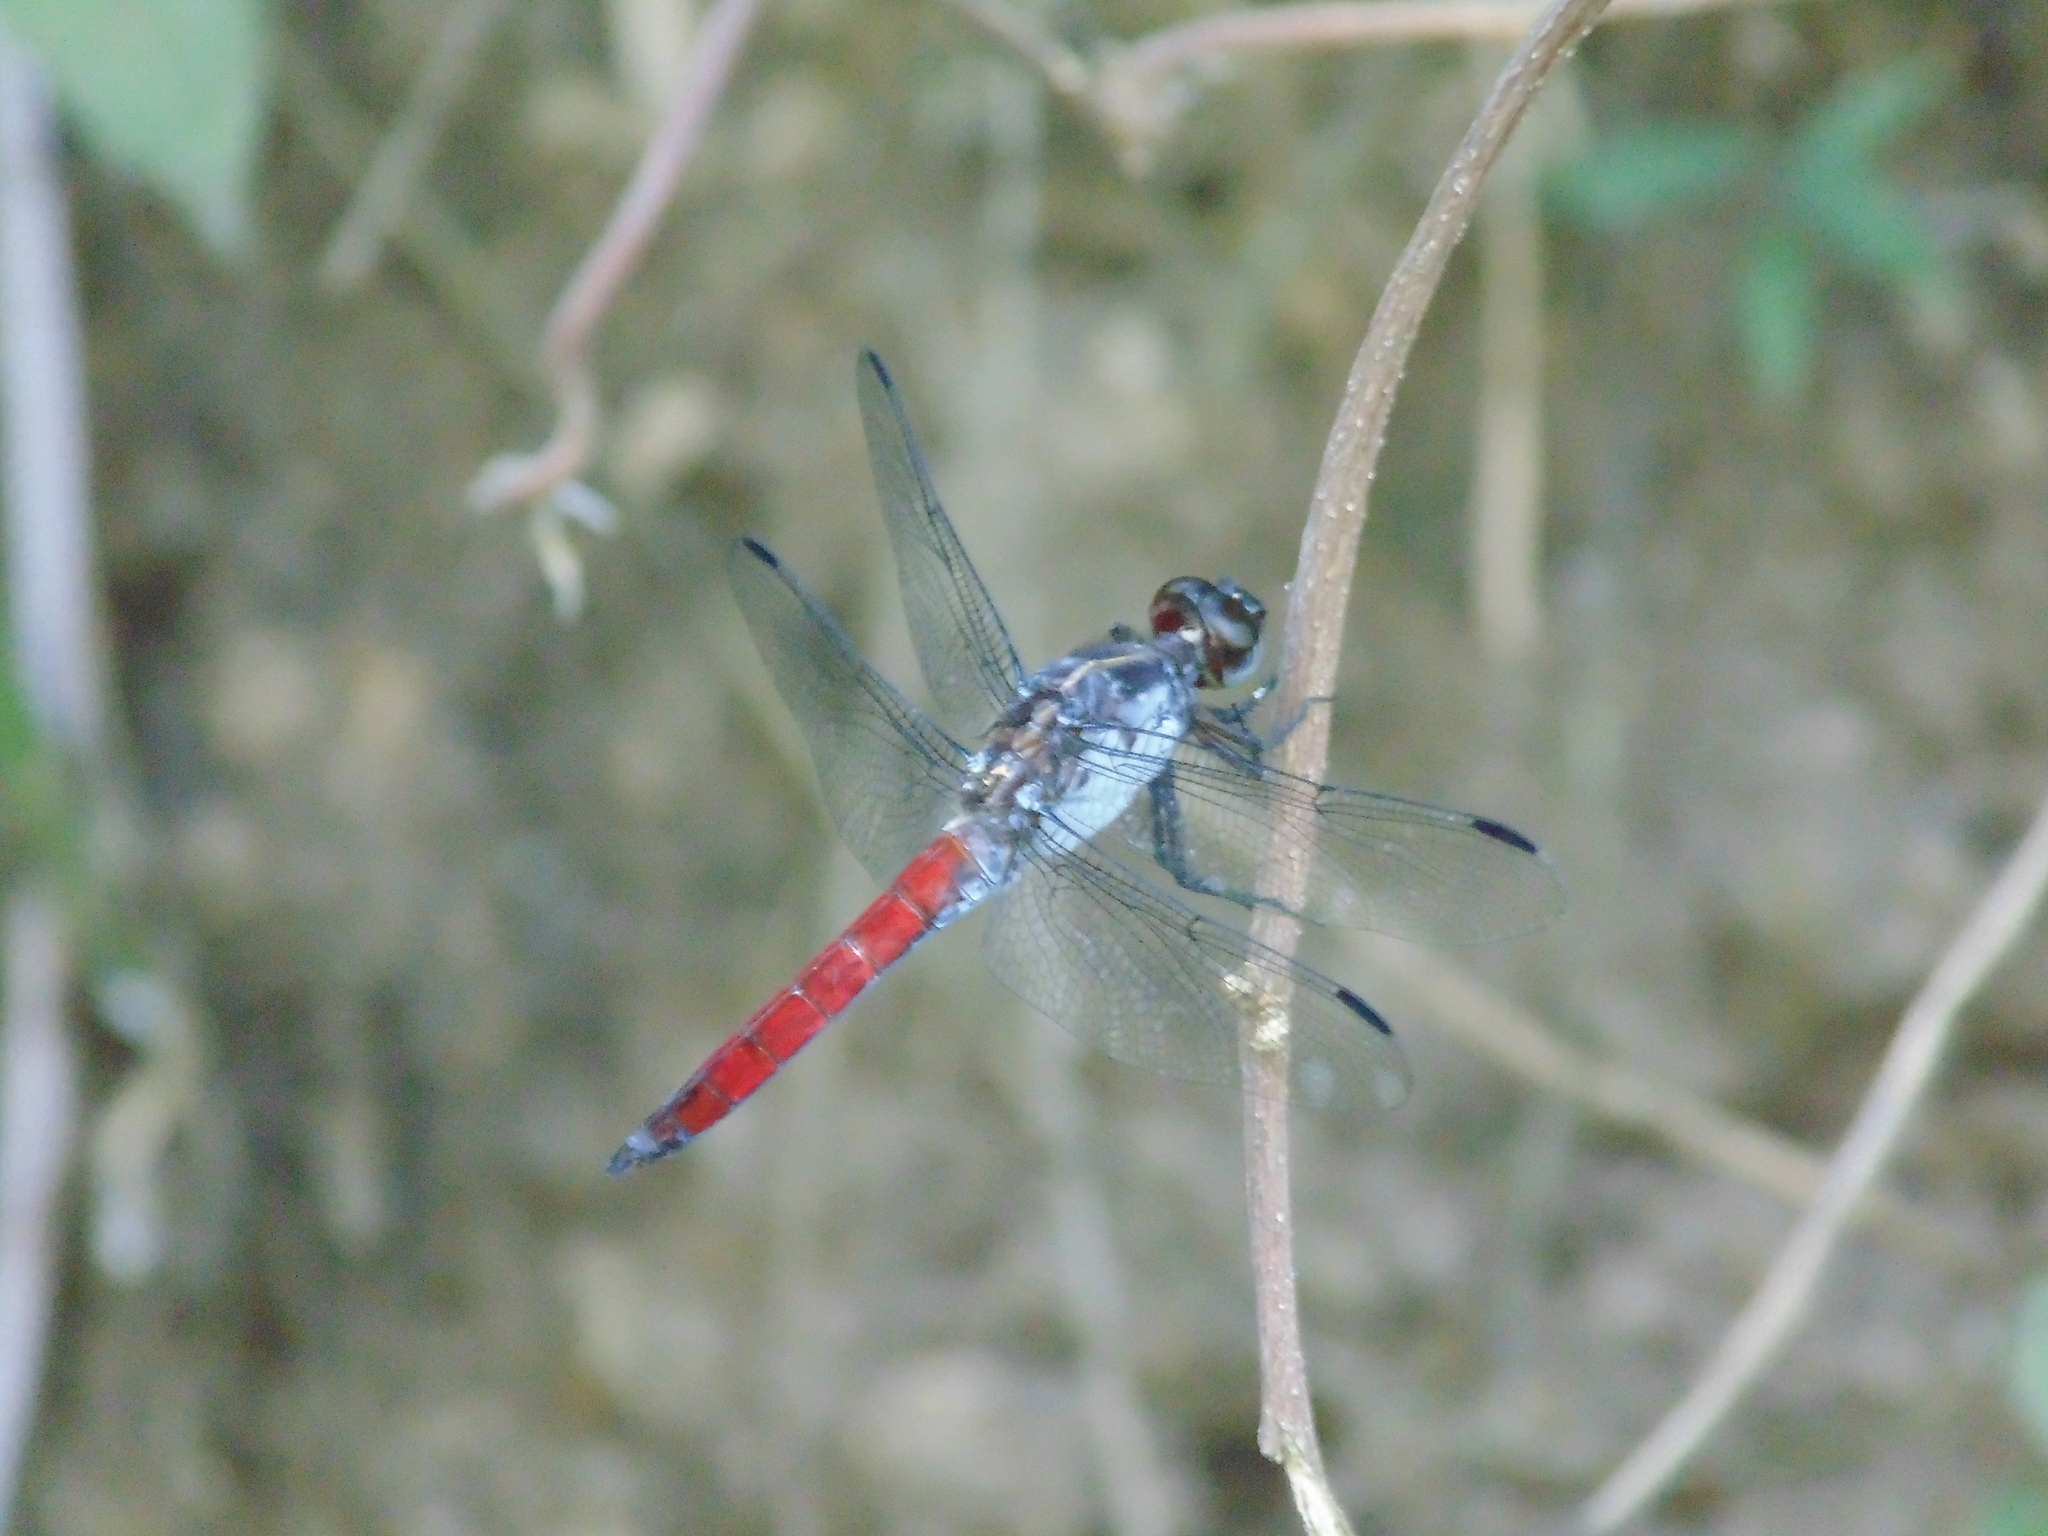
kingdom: Animalia
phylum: Arthropoda
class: Insecta
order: Odonata
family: Libellulidae
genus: Libellula
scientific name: Libellula herculea
